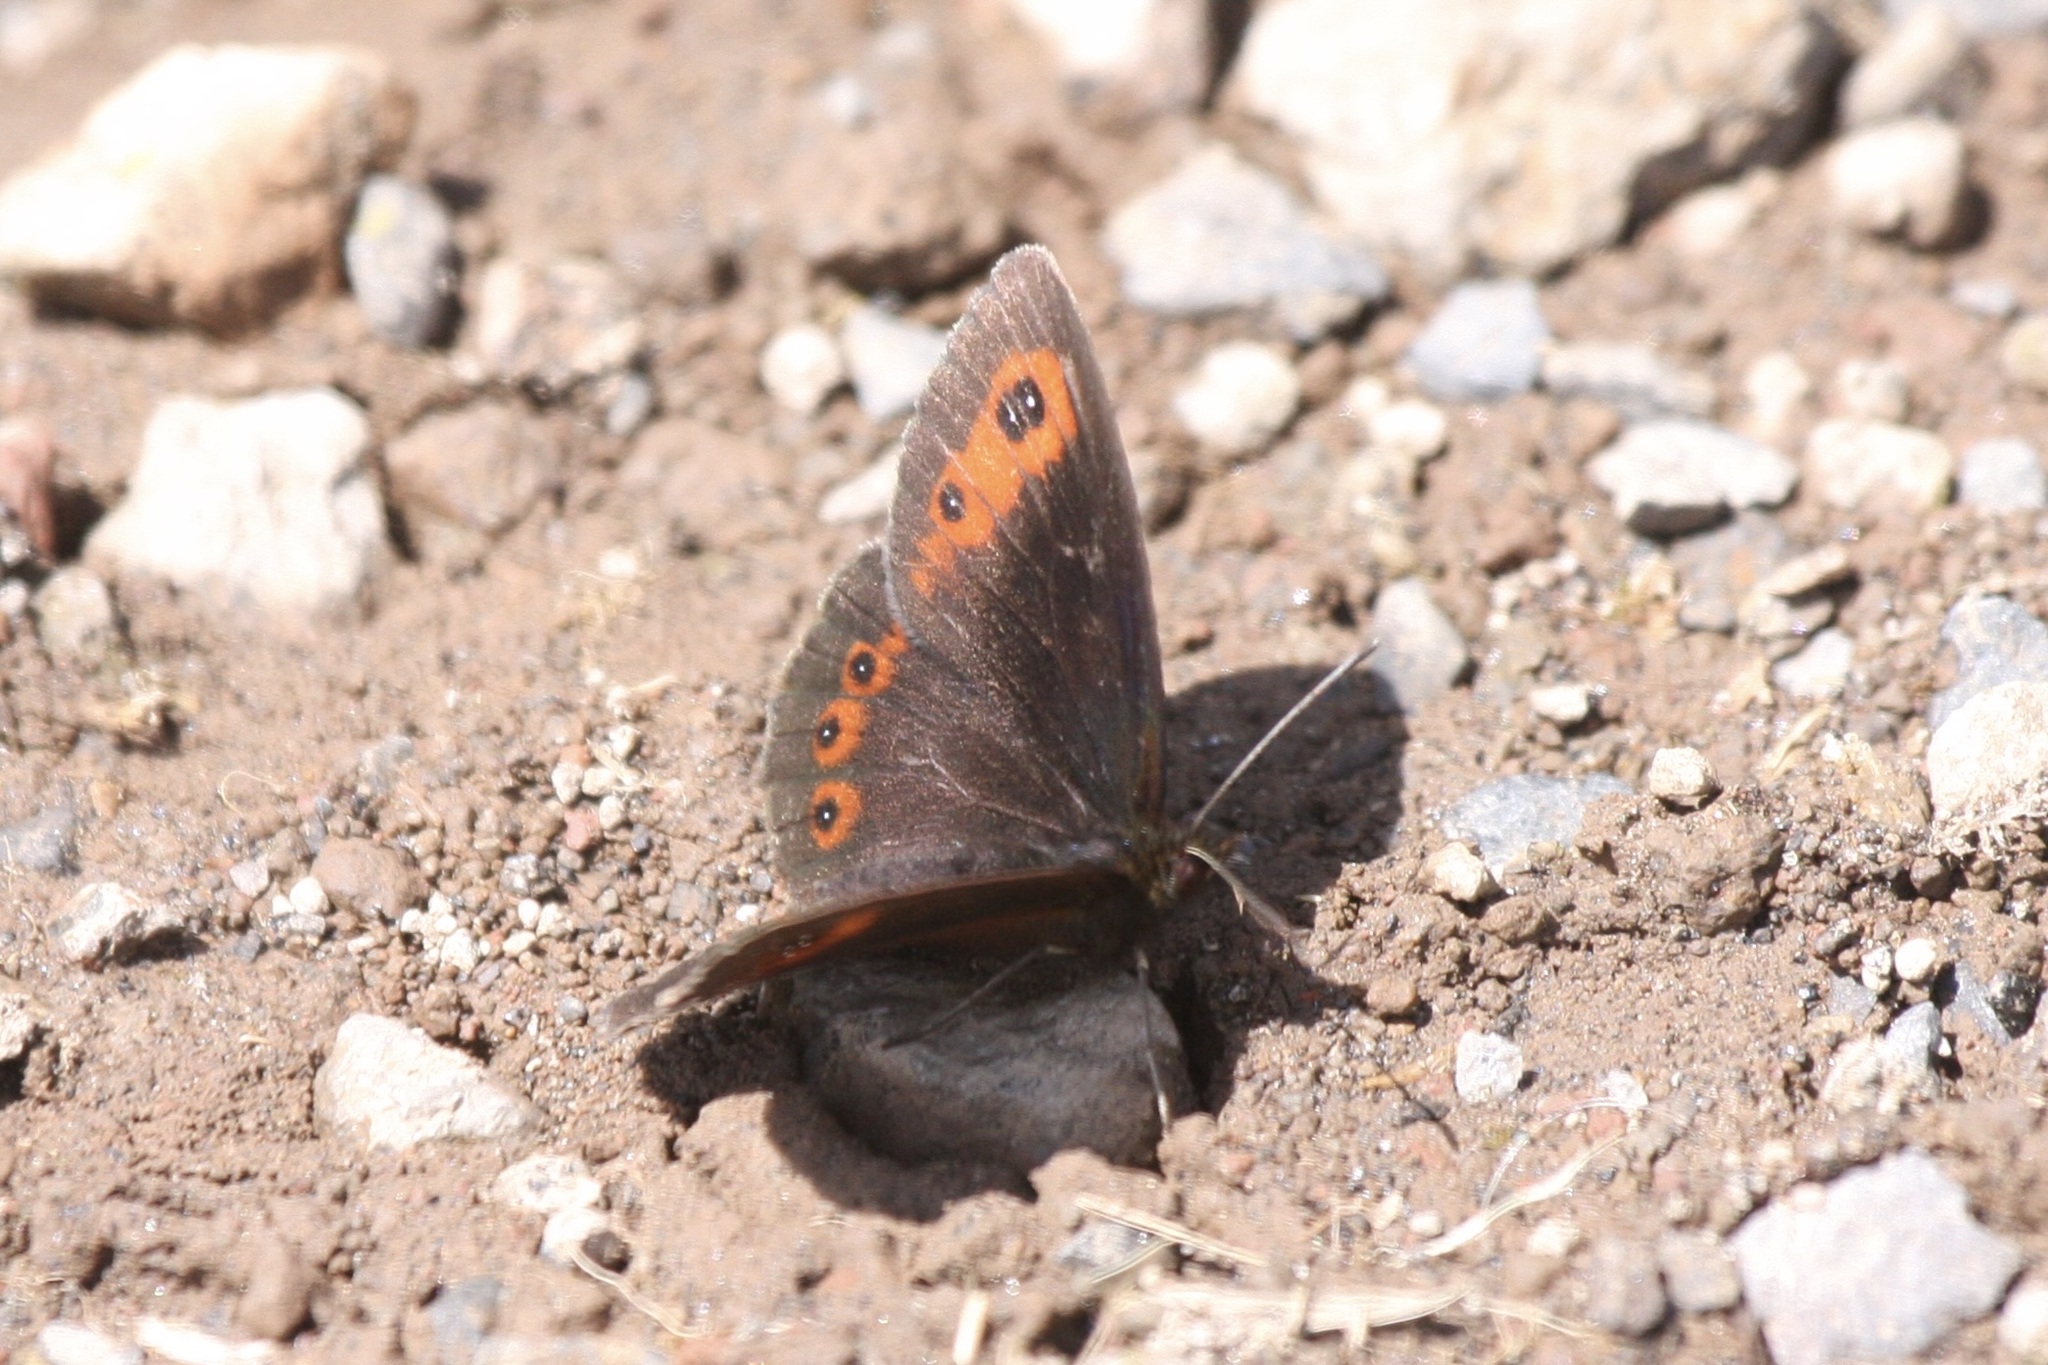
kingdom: Animalia
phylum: Arthropoda
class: Insecta
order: Lepidoptera
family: Nymphalidae
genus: Erebia
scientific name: Erebia aethiops
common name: Scotch argus
